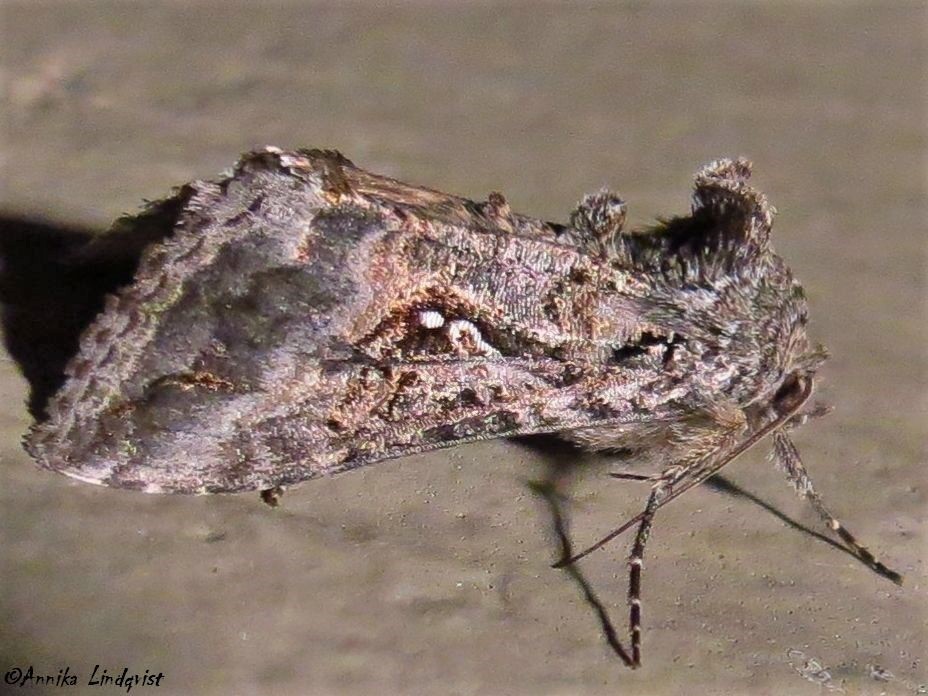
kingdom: Animalia
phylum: Arthropoda
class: Insecta
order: Lepidoptera
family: Noctuidae
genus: Rachiplusia
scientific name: Rachiplusia ou
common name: Gray looper moth
